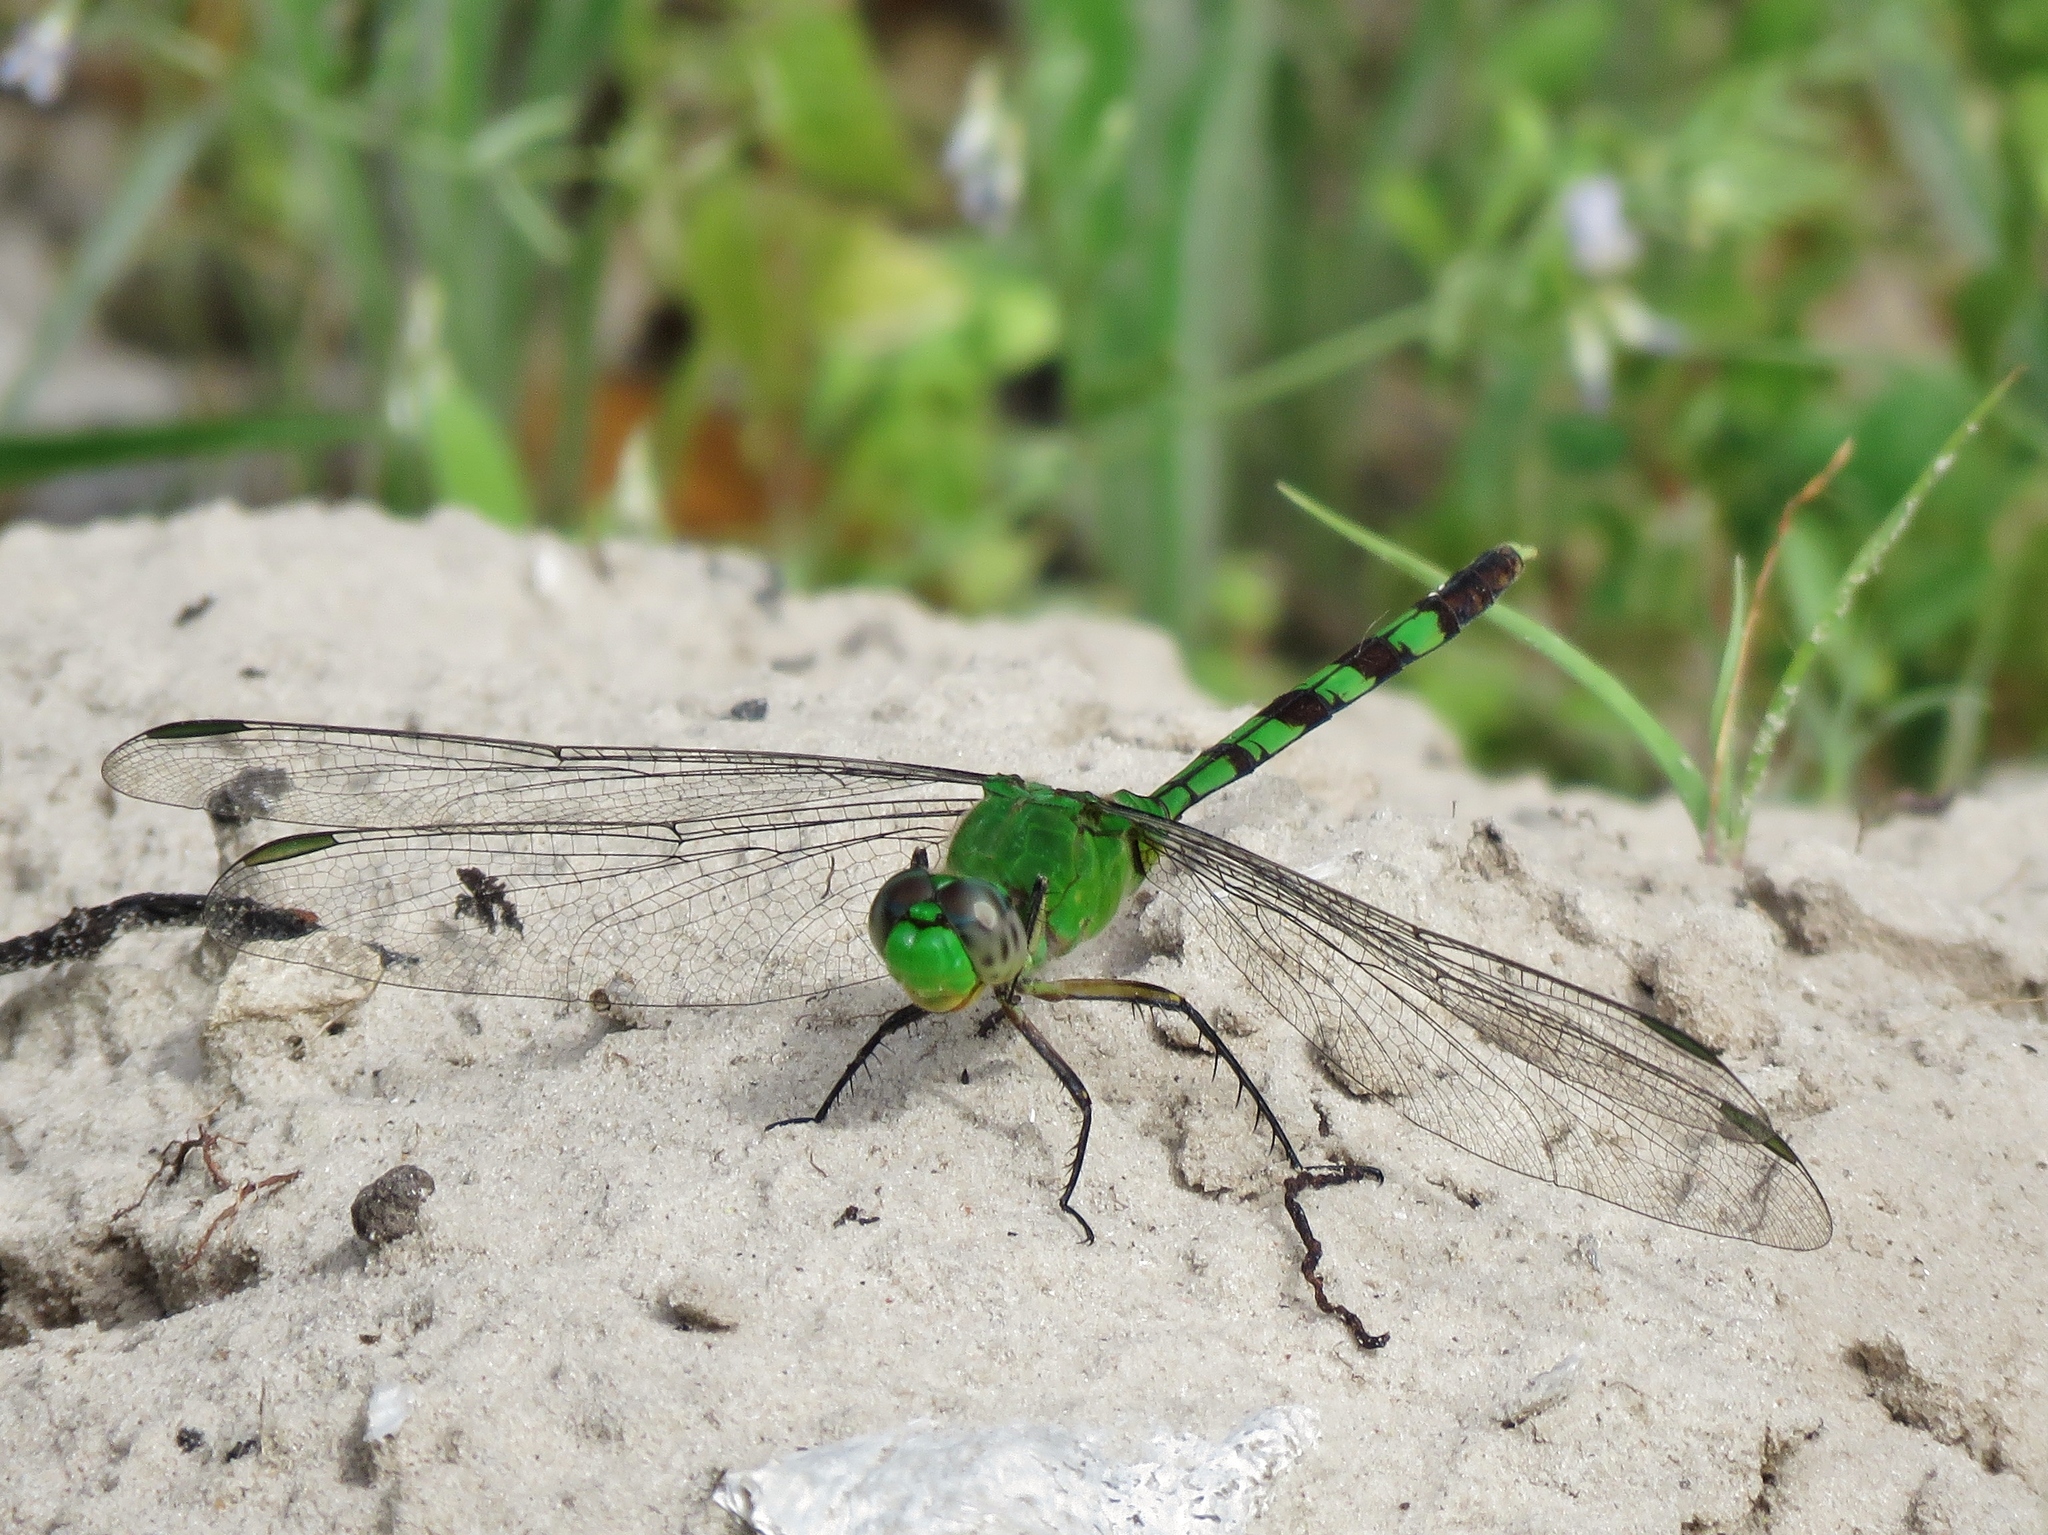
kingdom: Animalia
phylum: Arthropoda
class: Insecta
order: Odonata
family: Libellulidae
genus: Erythemis
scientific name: Erythemis vesiculosa
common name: Great pondhawk
